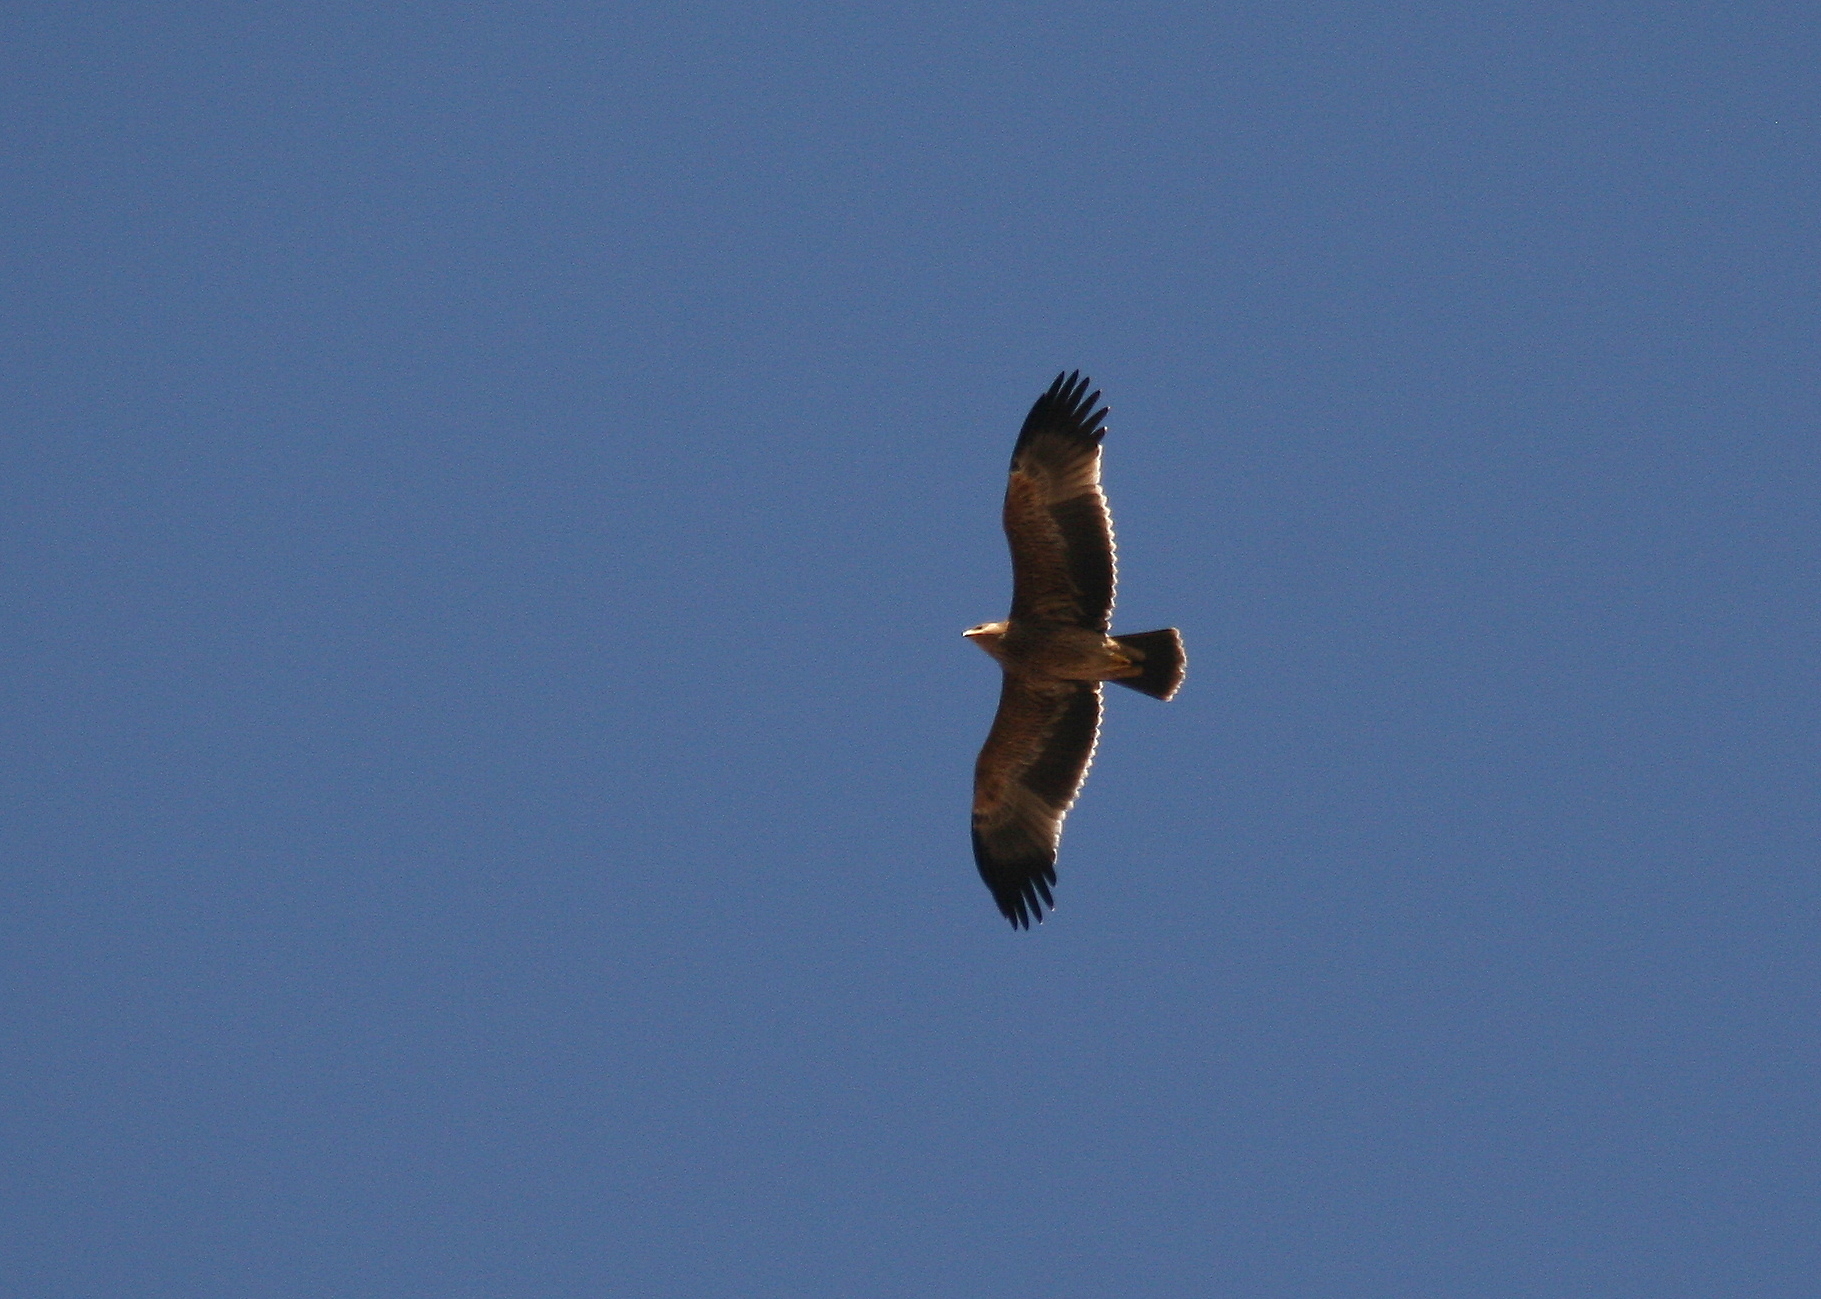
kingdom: Animalia
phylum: Chordata
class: Aves
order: Accipitriformes
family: Accipitridae
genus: Aquila
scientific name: Aquila heliaca
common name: Eastern imperial eagle
